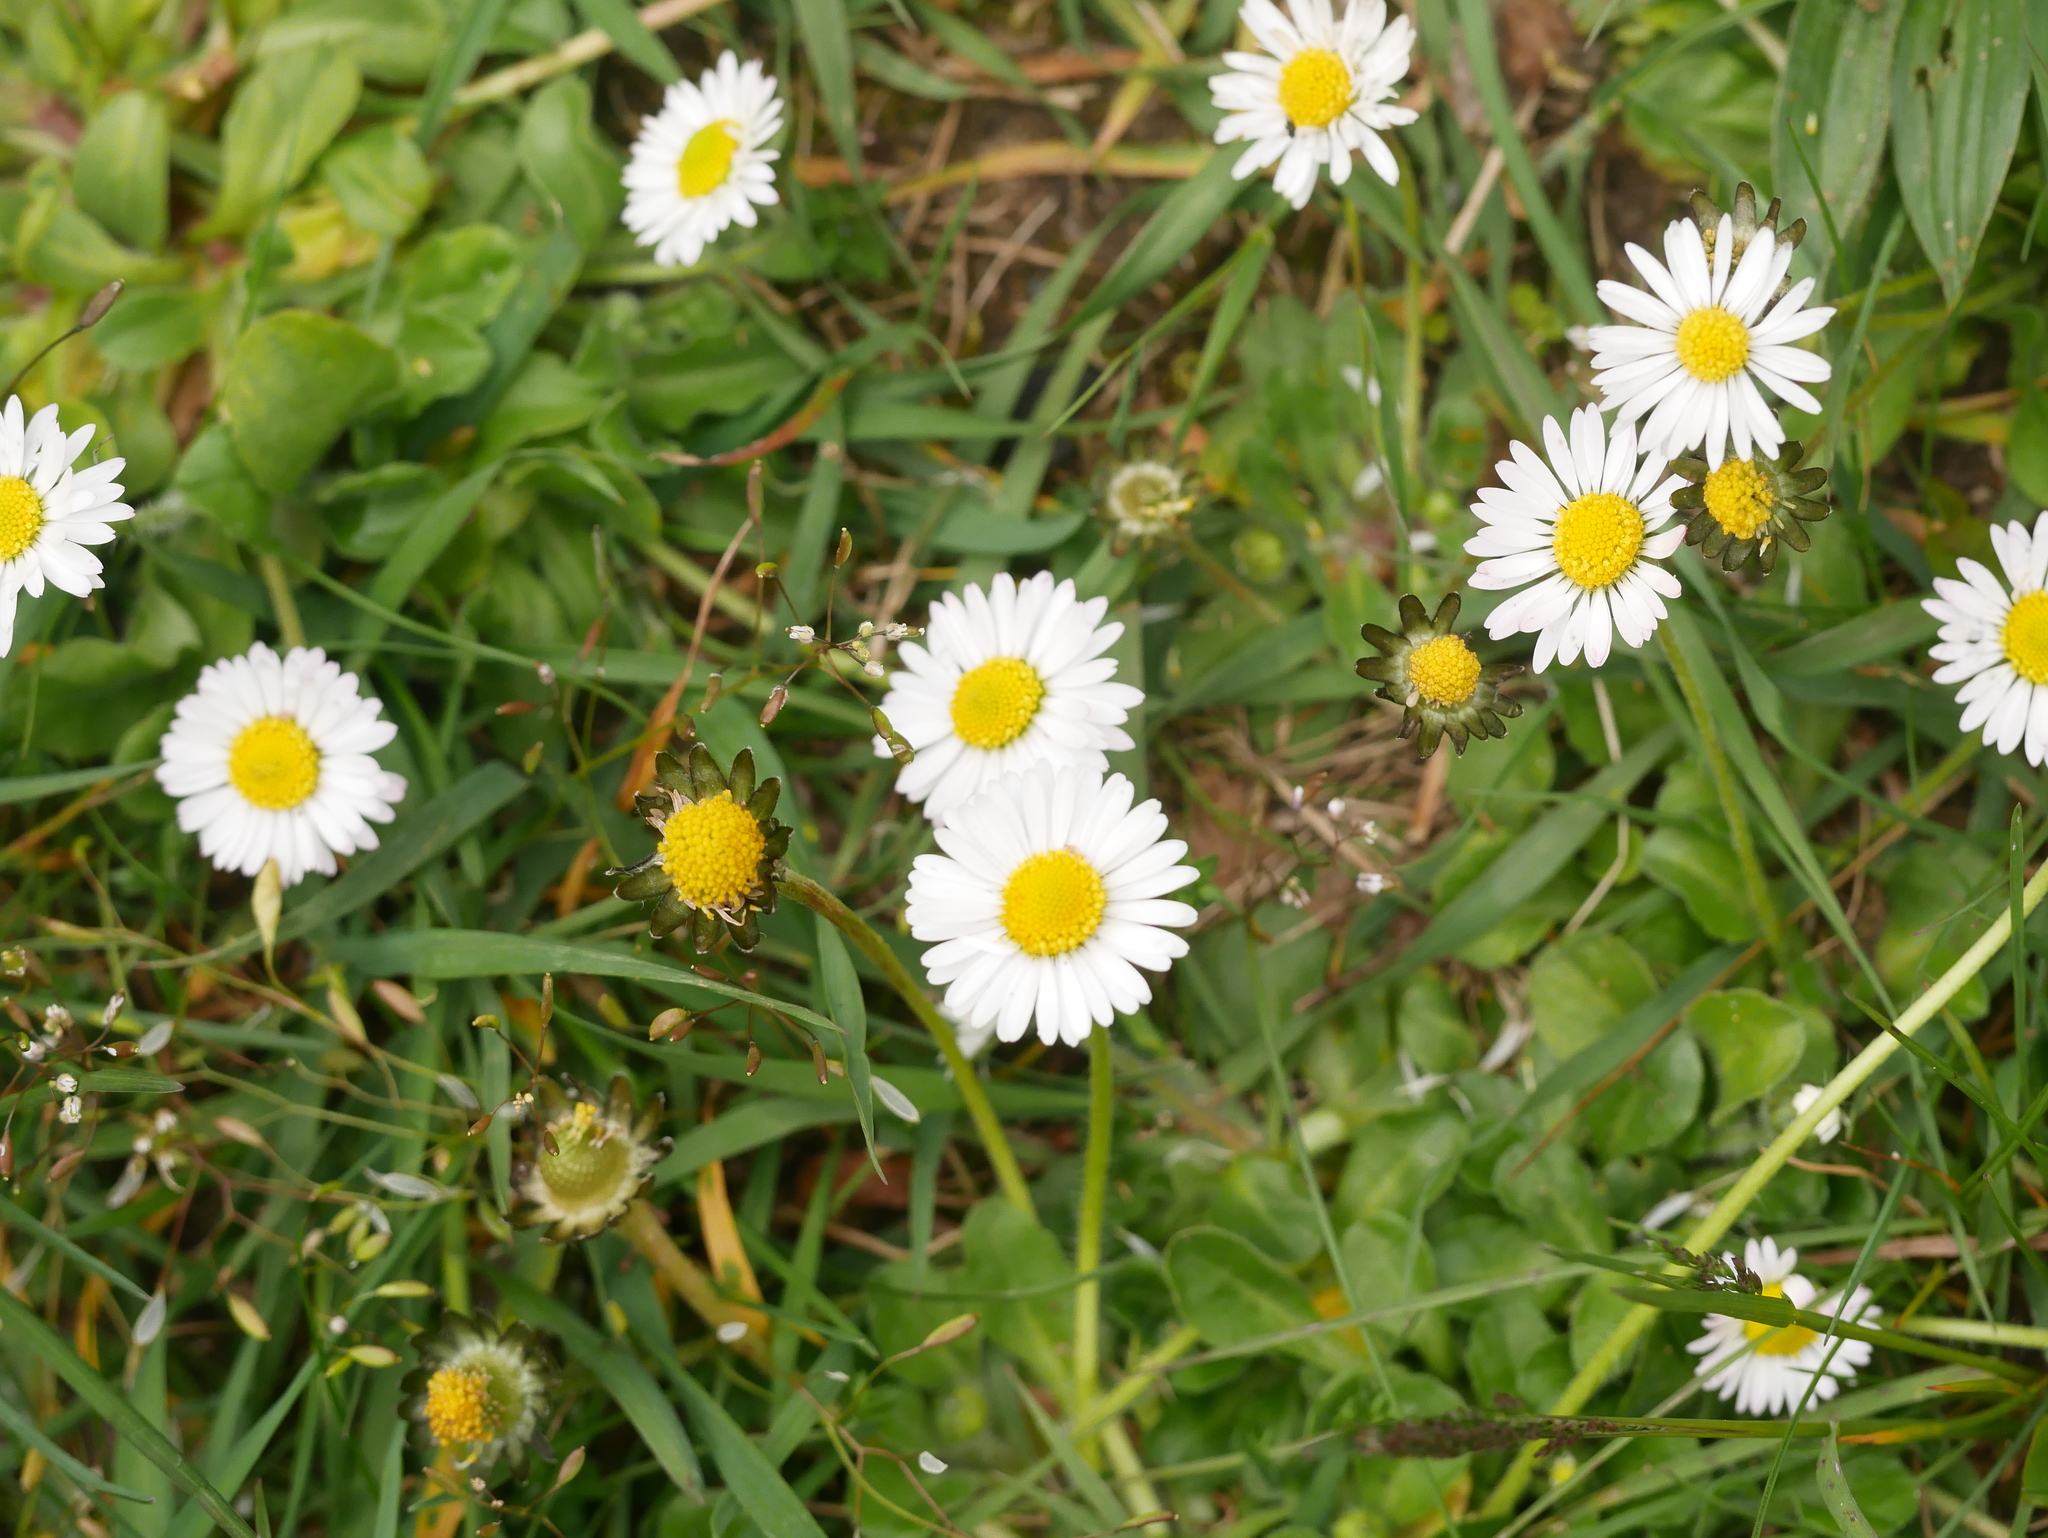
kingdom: Plantae
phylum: Tracheophyta
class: Magnoliopsida
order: Asterales
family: Asteraceae
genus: Bellis
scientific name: Bellis perennis
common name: Lawndaisy
